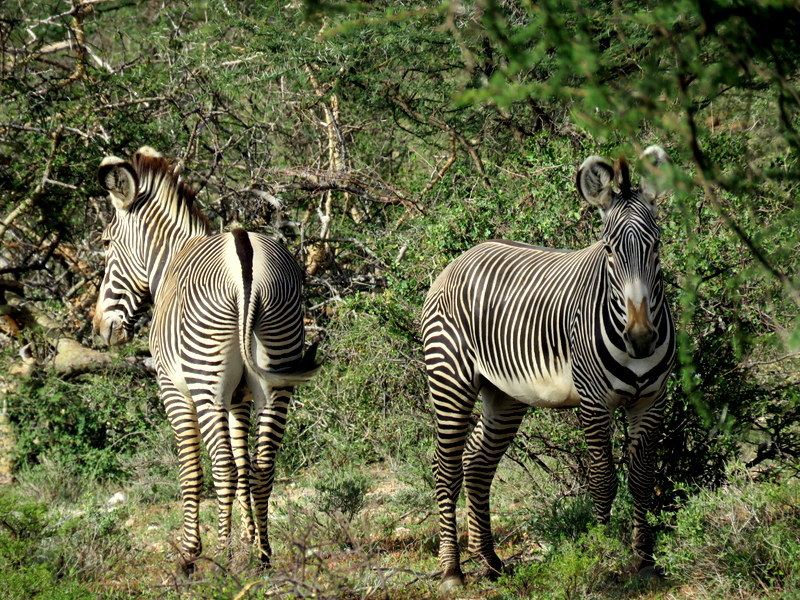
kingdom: Animalia
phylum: Chordata
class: Mammalia
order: Perissodactyla
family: Equidae
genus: Equus
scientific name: Equus grevyi
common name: Grevy's zebra
